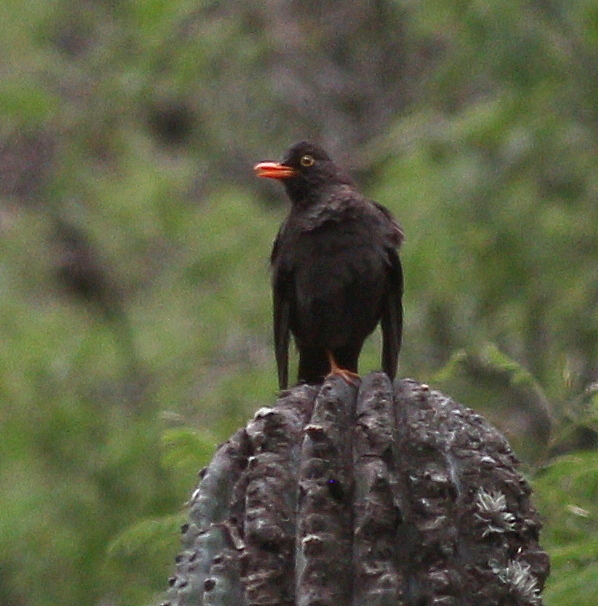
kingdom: Animalia
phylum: Chordata
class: Aves
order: Passeriformes
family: Turdidae
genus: Turdus
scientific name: Turdus chiguanco
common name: Chiguanco thrush
